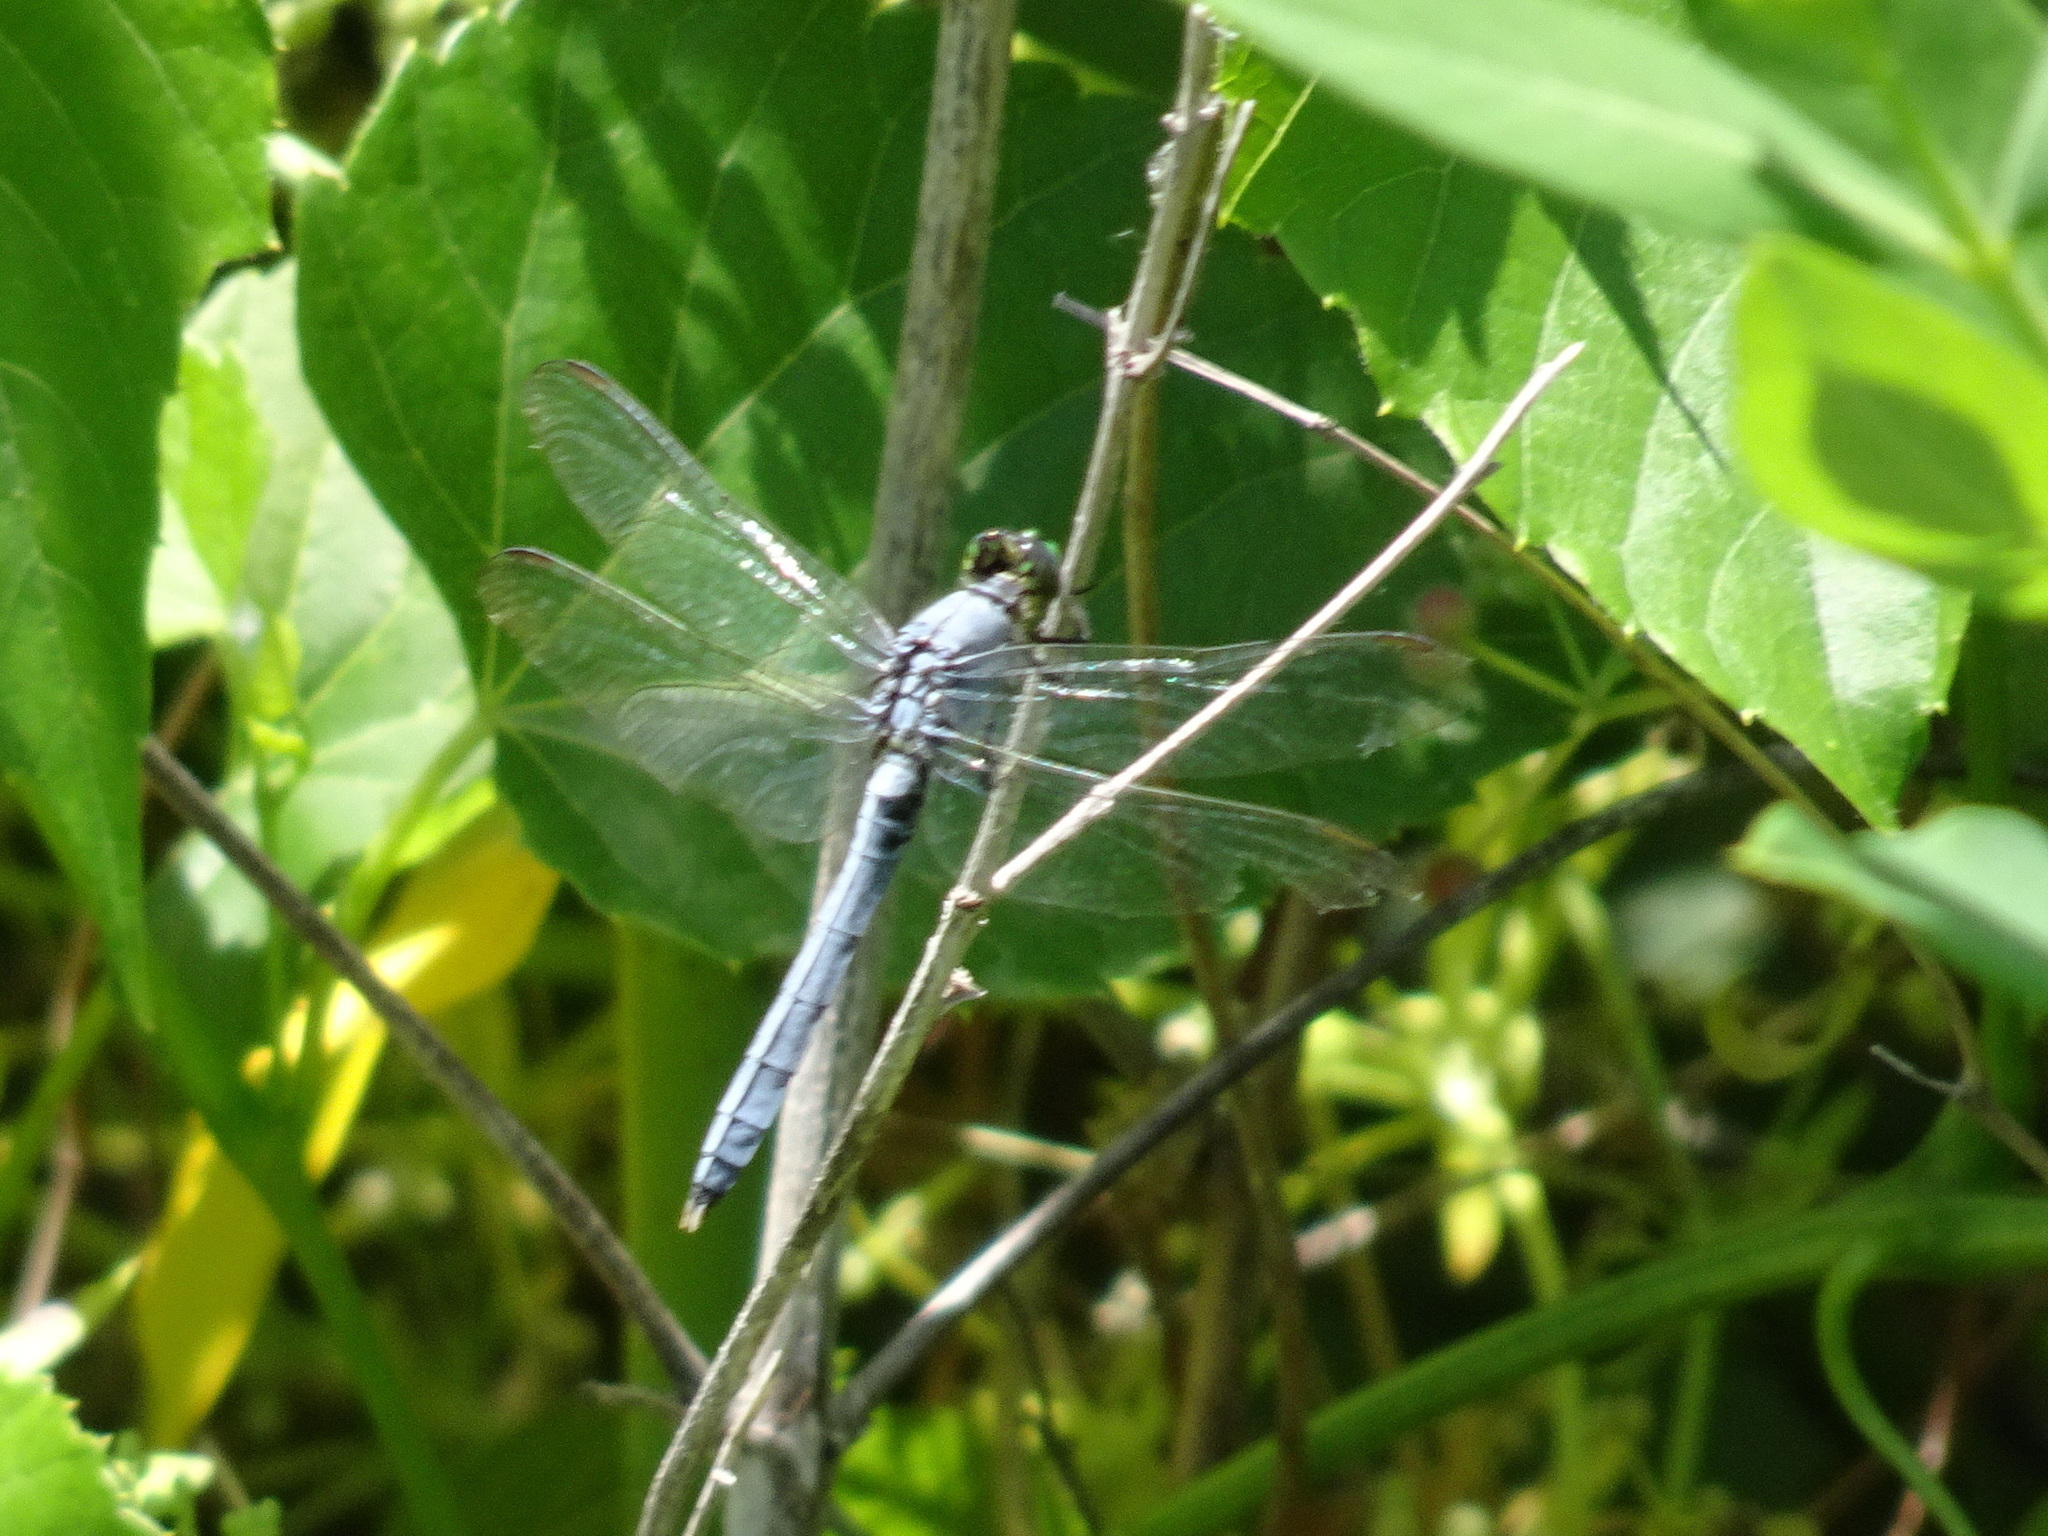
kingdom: Animalia
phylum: Arthropoda
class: Insecta
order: Odonata
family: Libellulidae
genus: Erythemis
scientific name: Erythemis simplicicollis
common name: Eastern pondhawk
